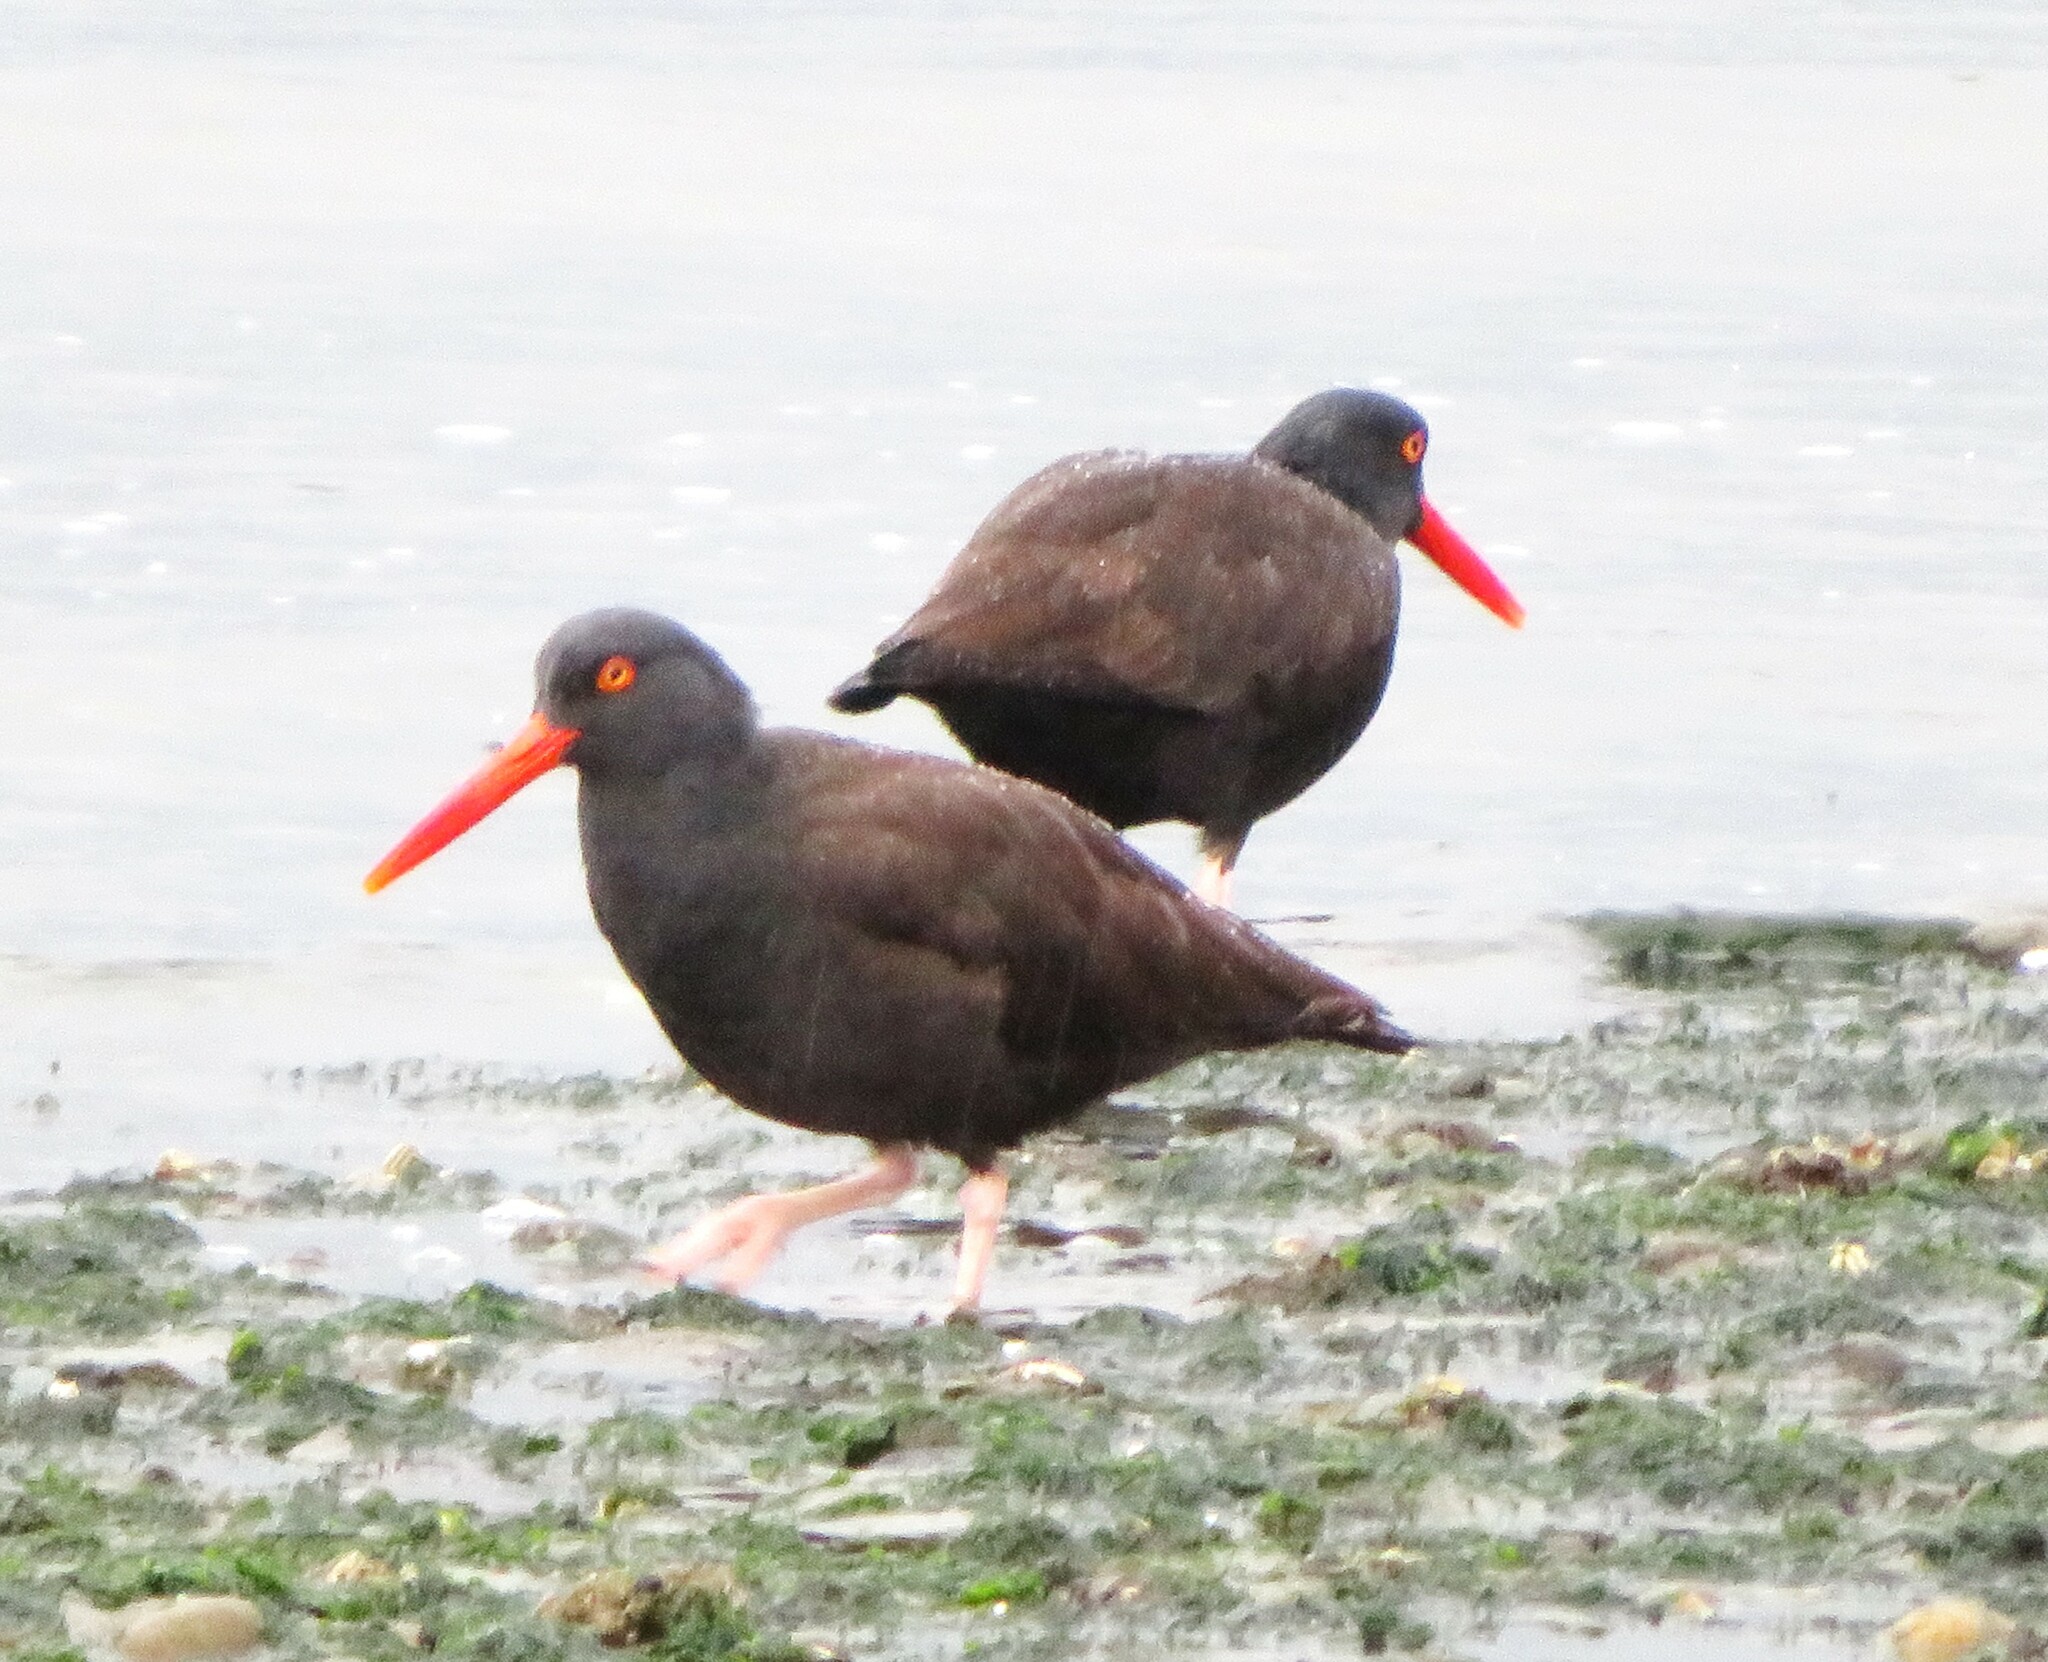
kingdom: Animalia
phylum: Chordata
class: Aves
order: Charadriiformes
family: Haematopodidae
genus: Haematopus
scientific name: Haematopus bachmani
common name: Black oystercatcher
